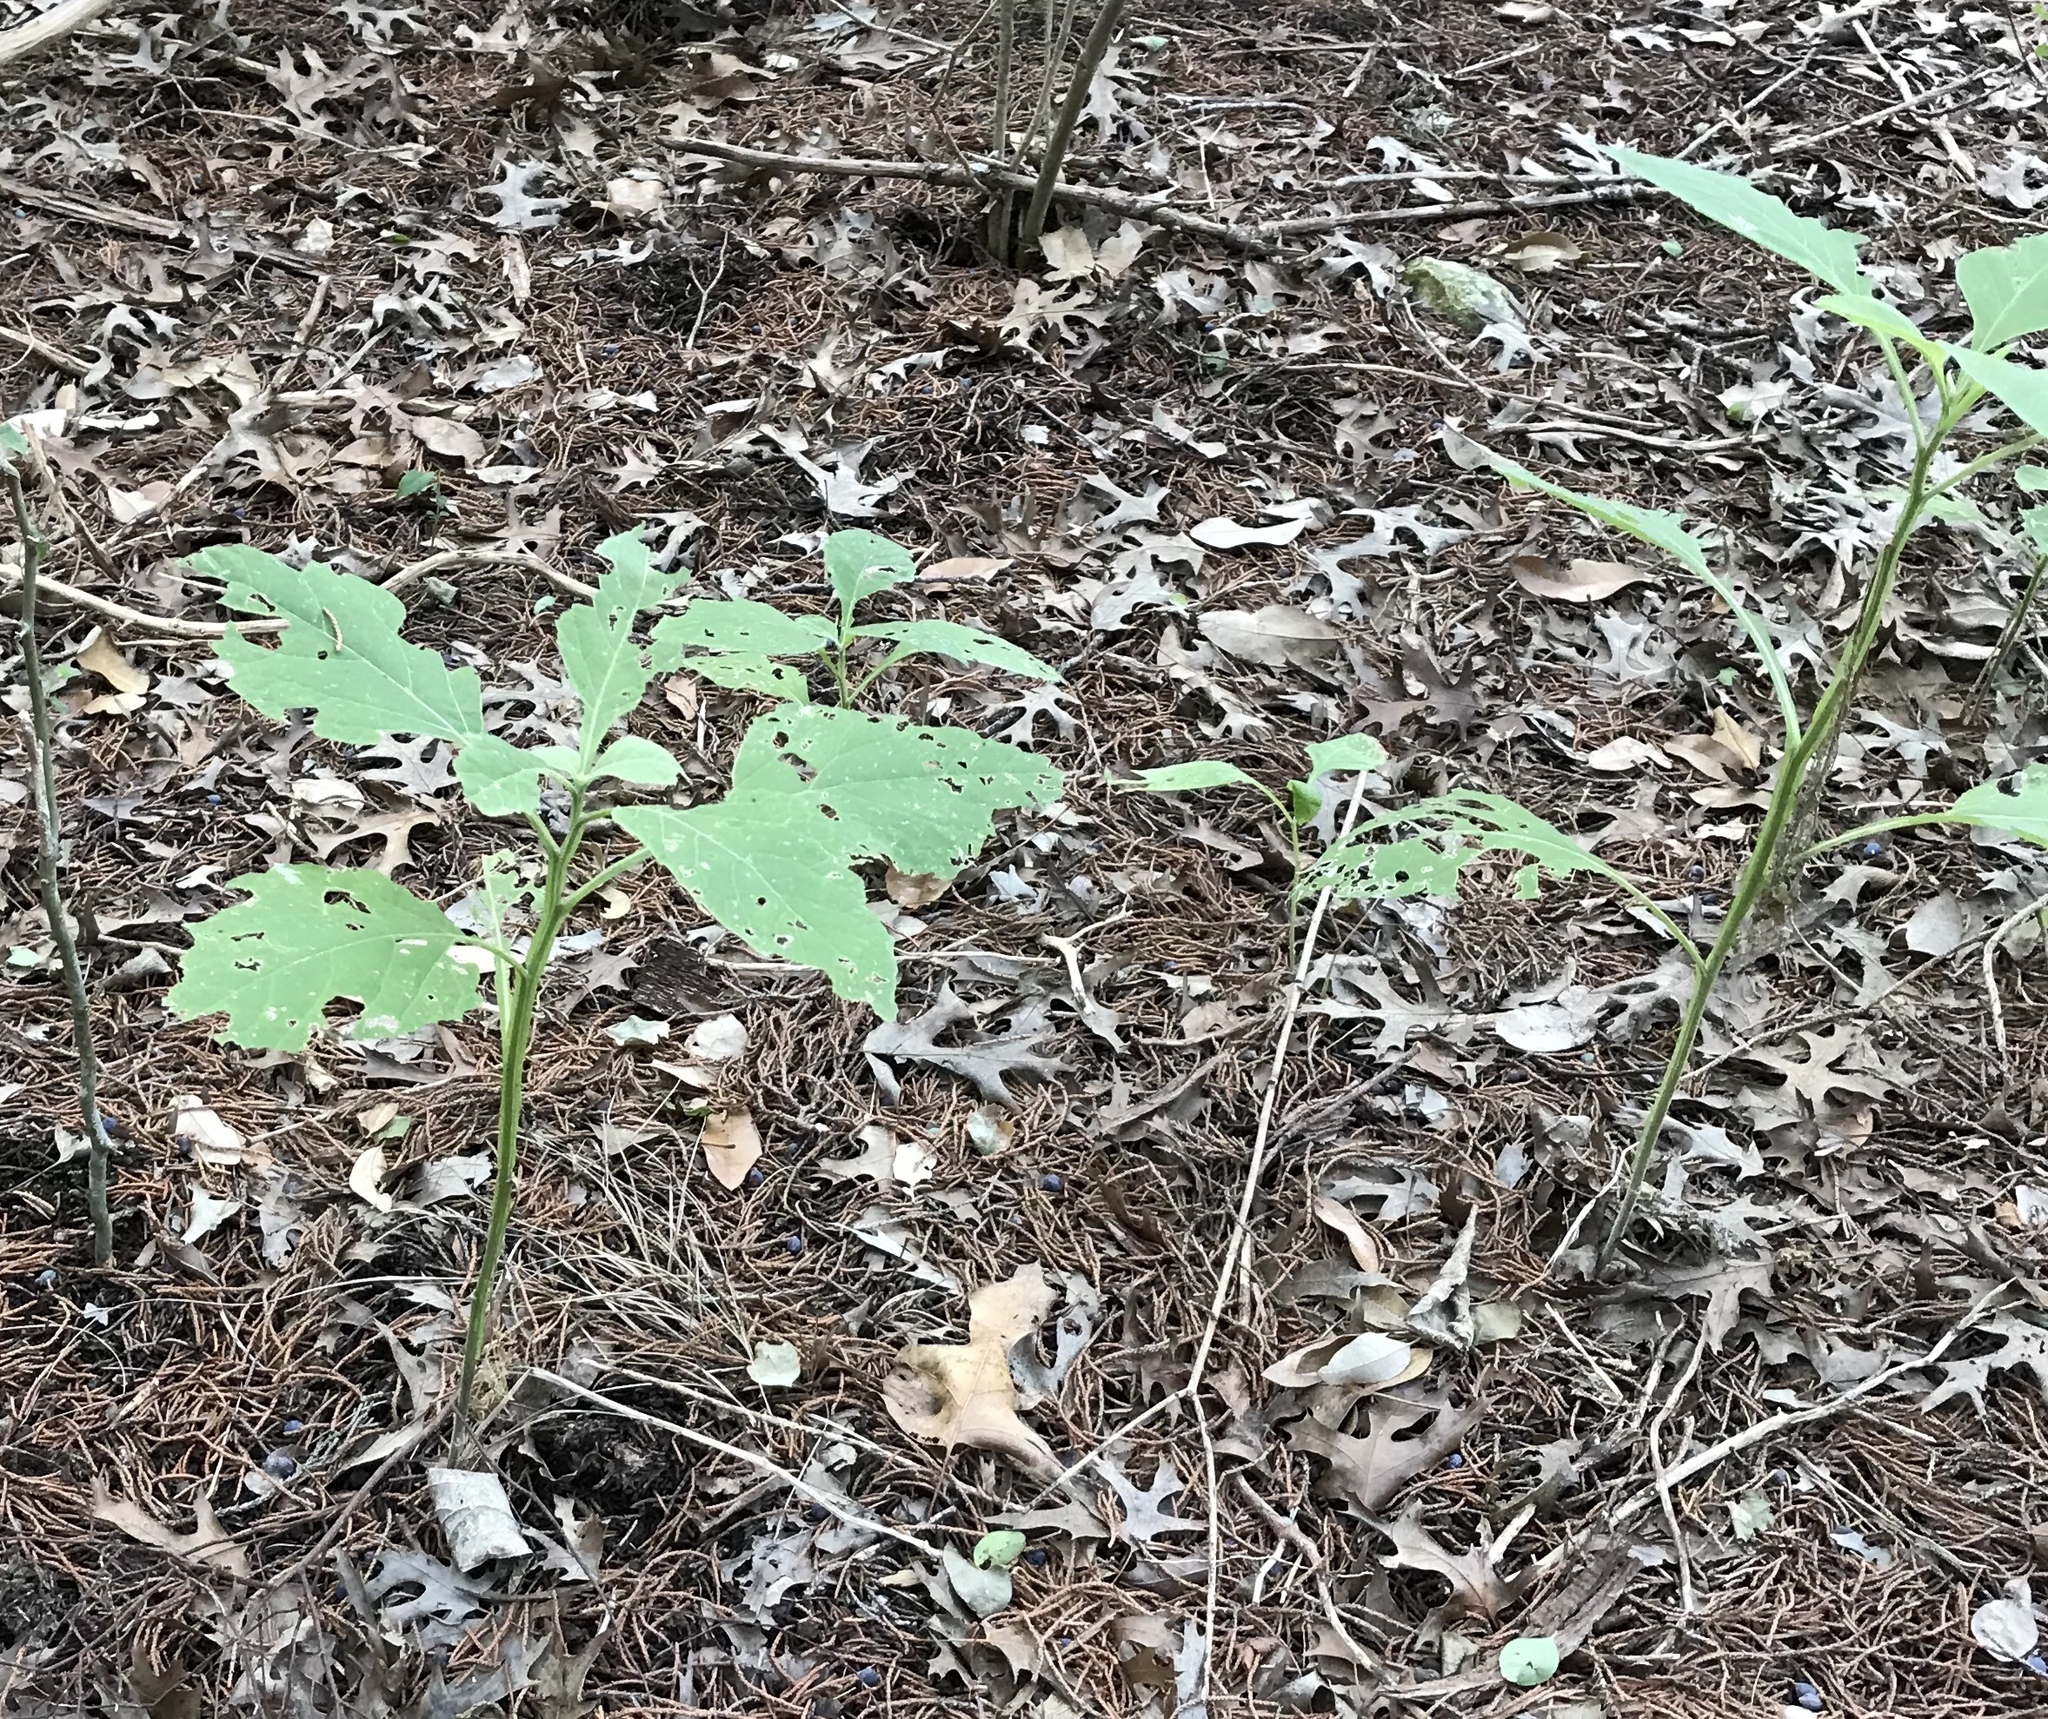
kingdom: Plantae
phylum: Tracheophyta
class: Magnoliopsida
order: Asterales
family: Asteraceae
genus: Verbesina
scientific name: Verbesina virginica
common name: Frostweed
